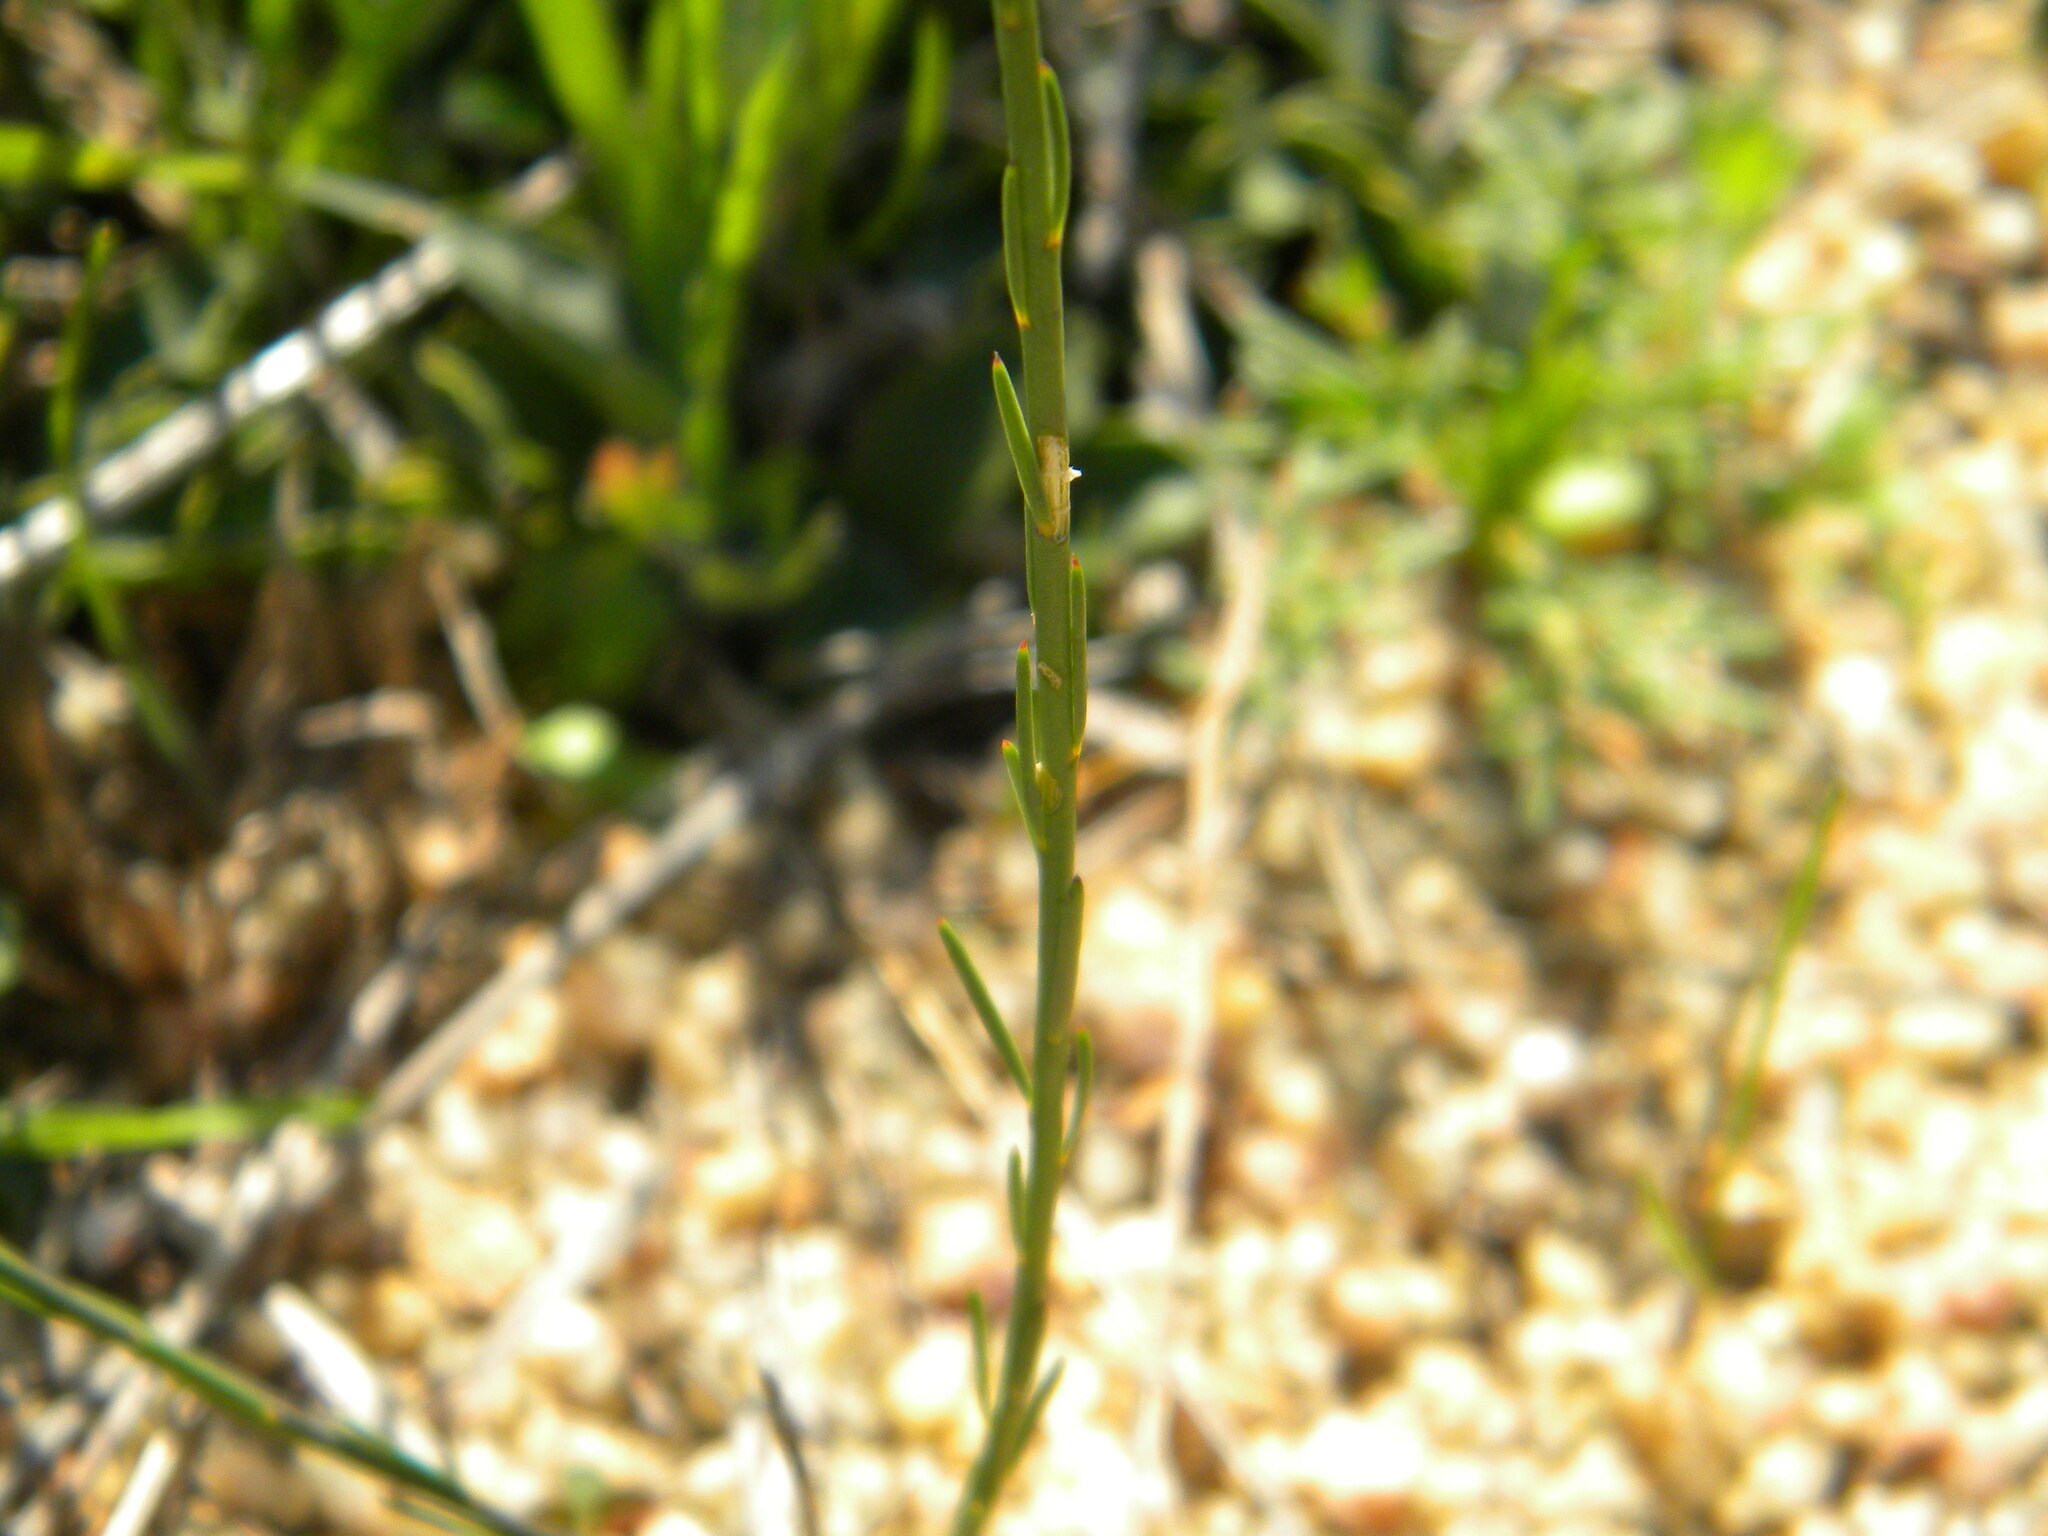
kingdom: Plantae
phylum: Tracheophyta
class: Magnoliopsida
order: Fabales
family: Polygalaceae
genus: Polygala
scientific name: Polygala garcini
